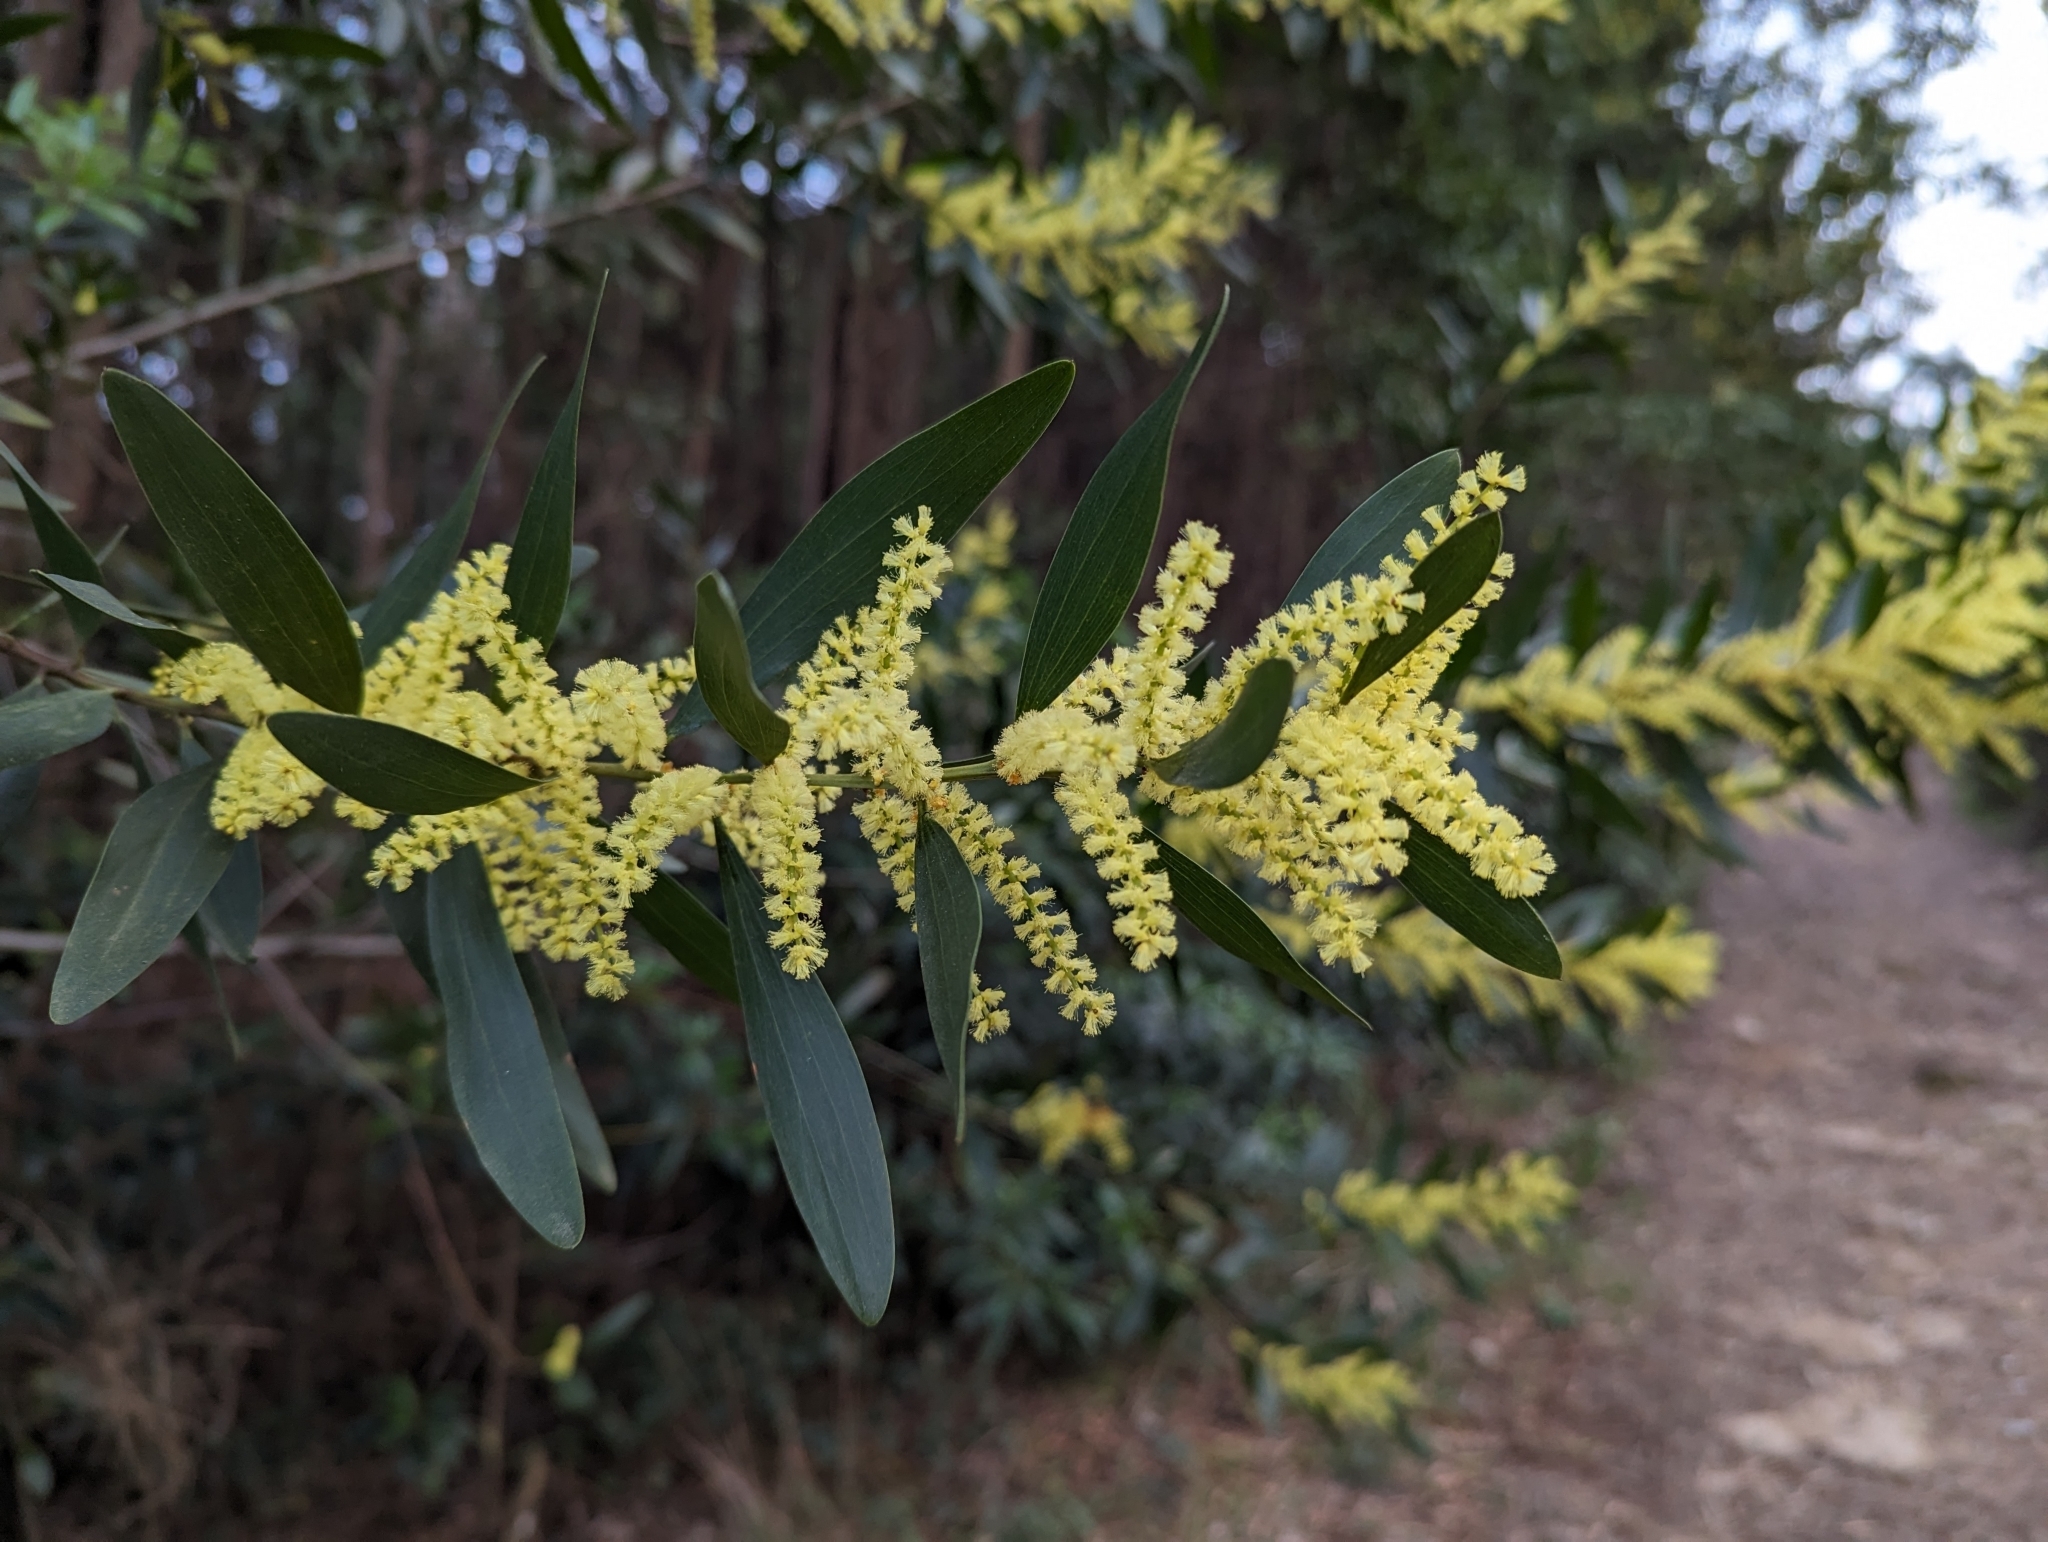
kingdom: Plantae
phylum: Tracheophyta
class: Magnoliopsida
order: Fabales
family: Fabaceae
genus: Acacia
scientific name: Acacia longifolia
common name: Sydney golden wattle
